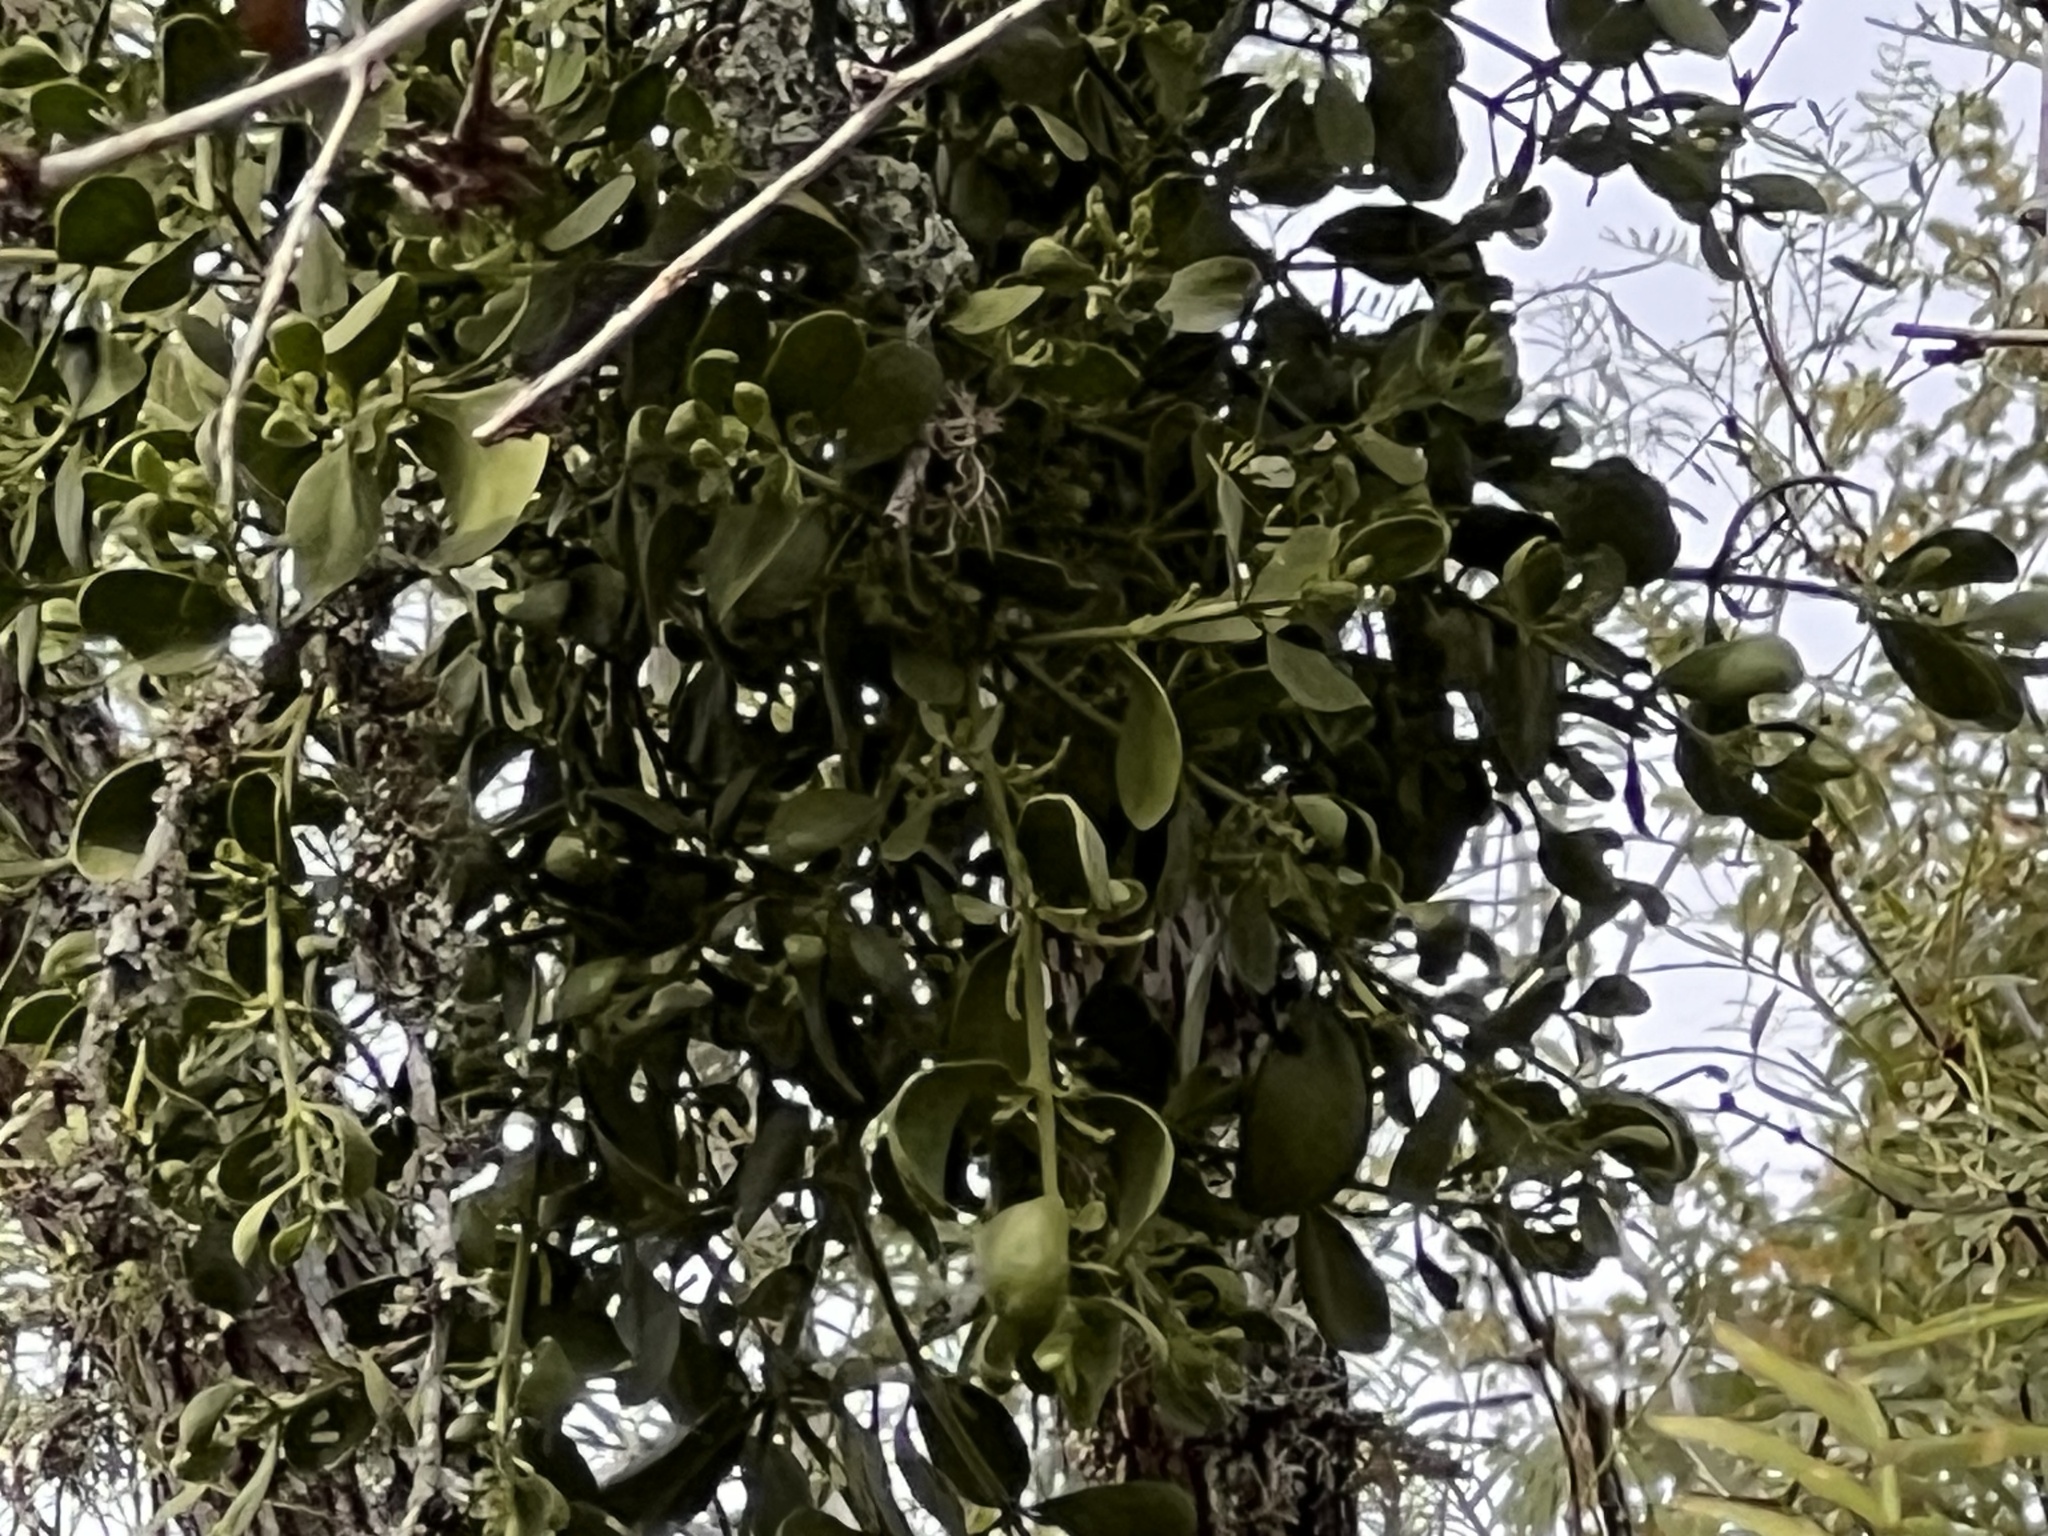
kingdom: Plantae
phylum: Tracheophyta
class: Magnoliopsida
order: Santalales
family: Viscaceae
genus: Phoradendron
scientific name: Phoradendron leucarpum
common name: Pacific mistletoe
